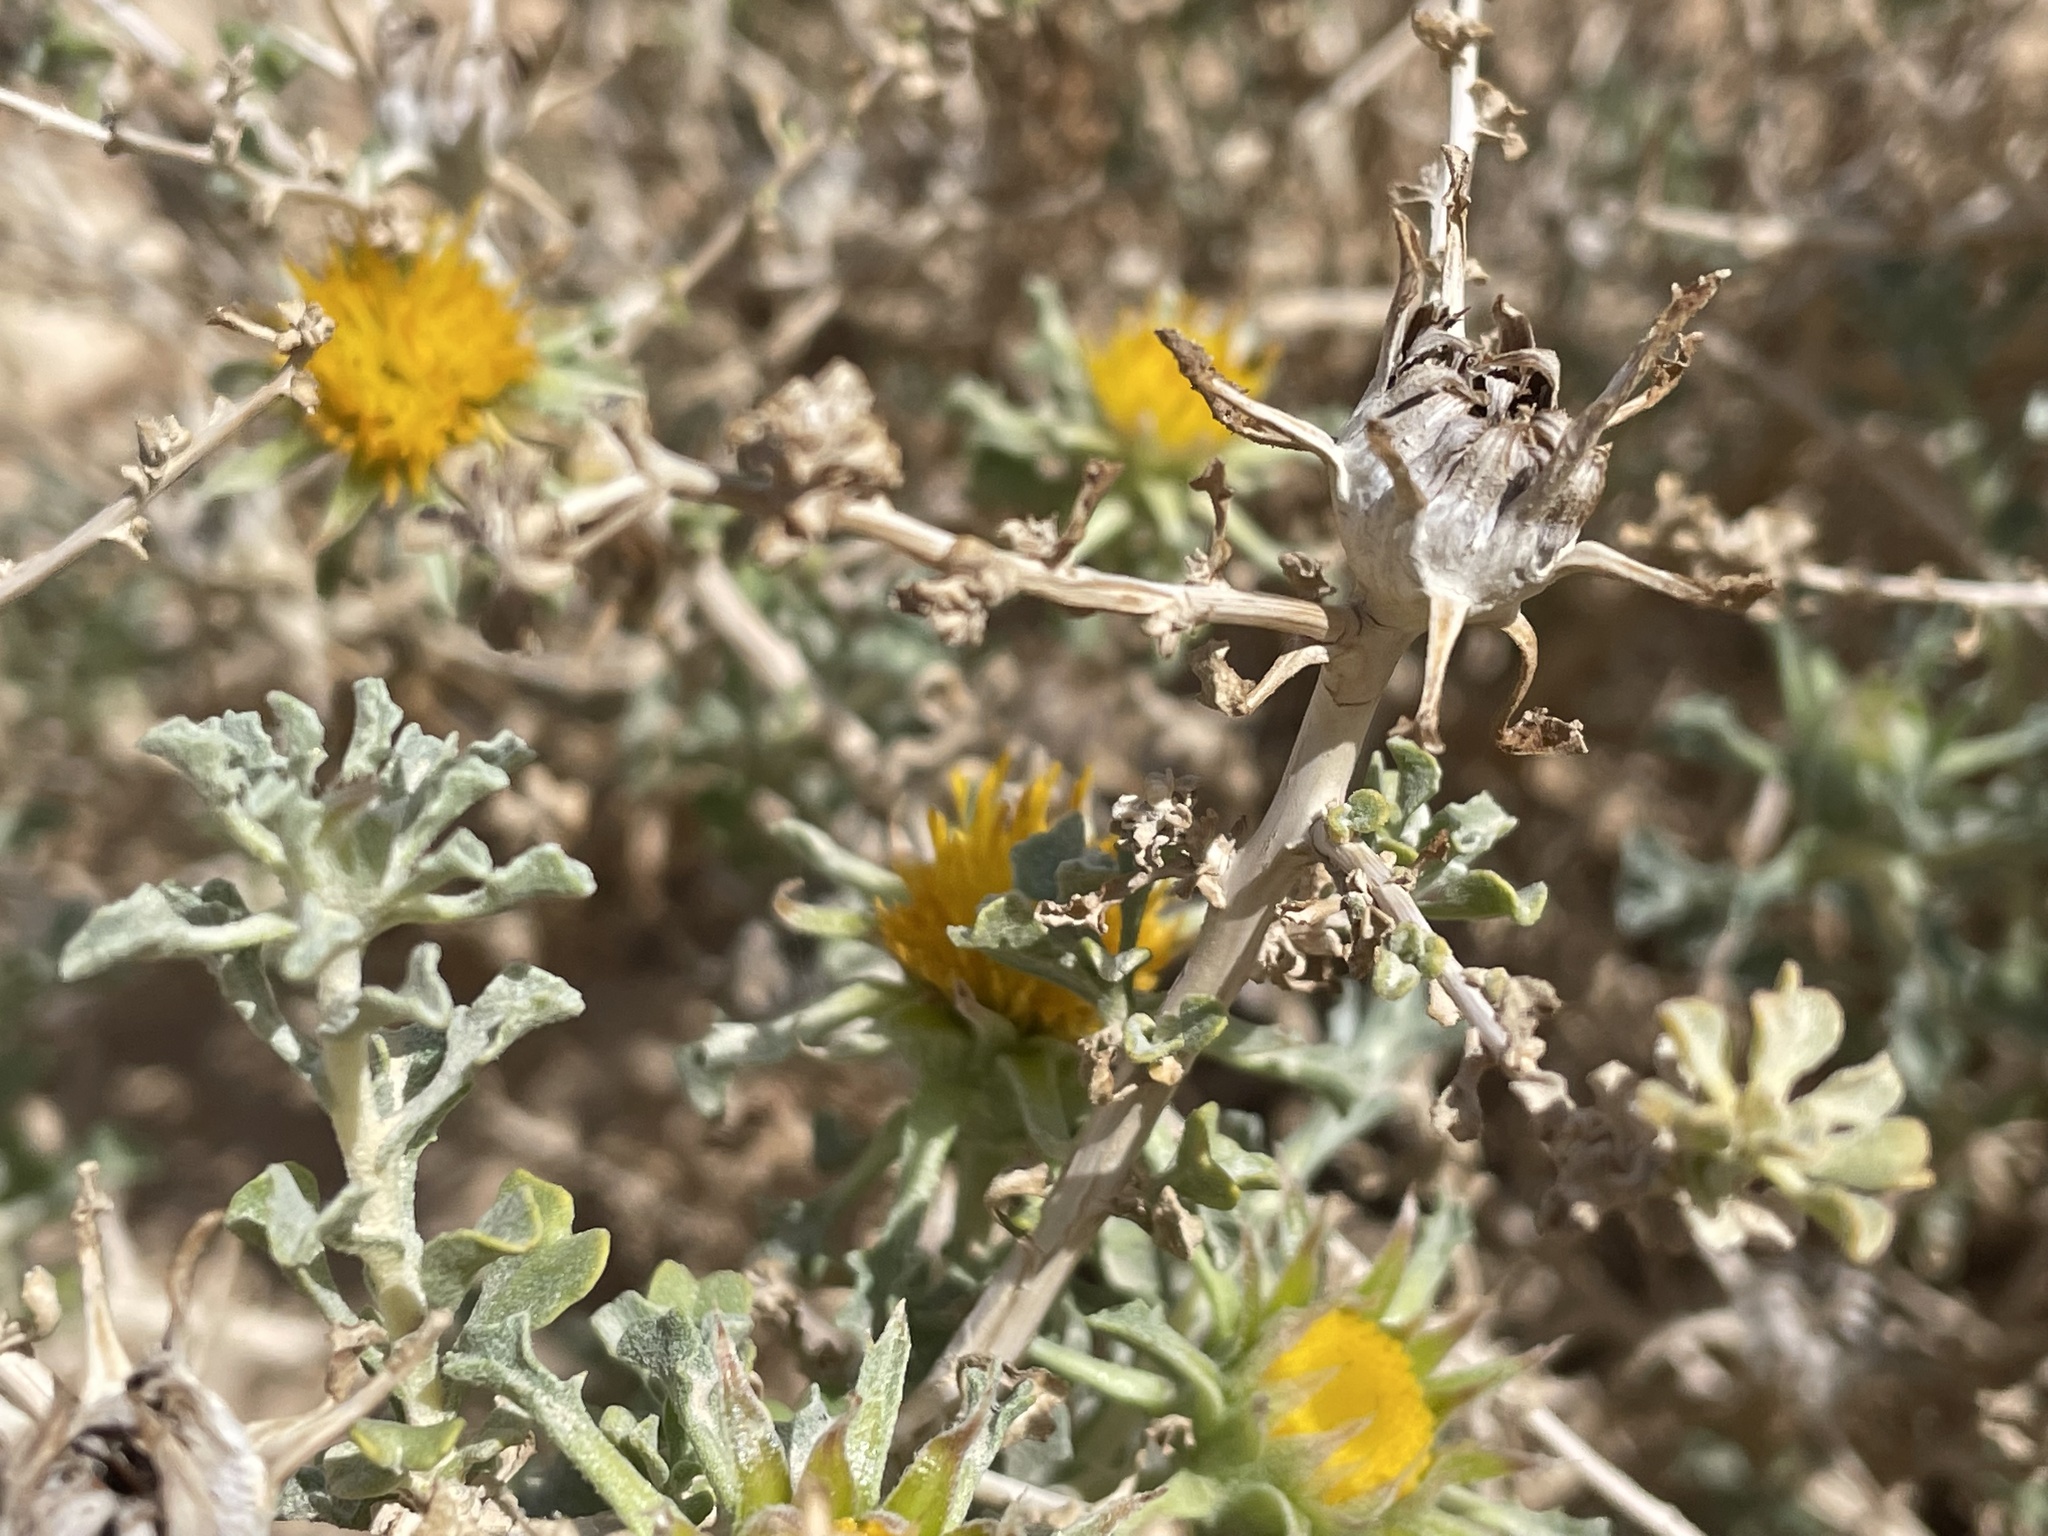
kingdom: Plantae
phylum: Tracheophyta
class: Magnoliopsida
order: Asterales
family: Asteraceae
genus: Anvillea
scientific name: Anvillea garcinii
